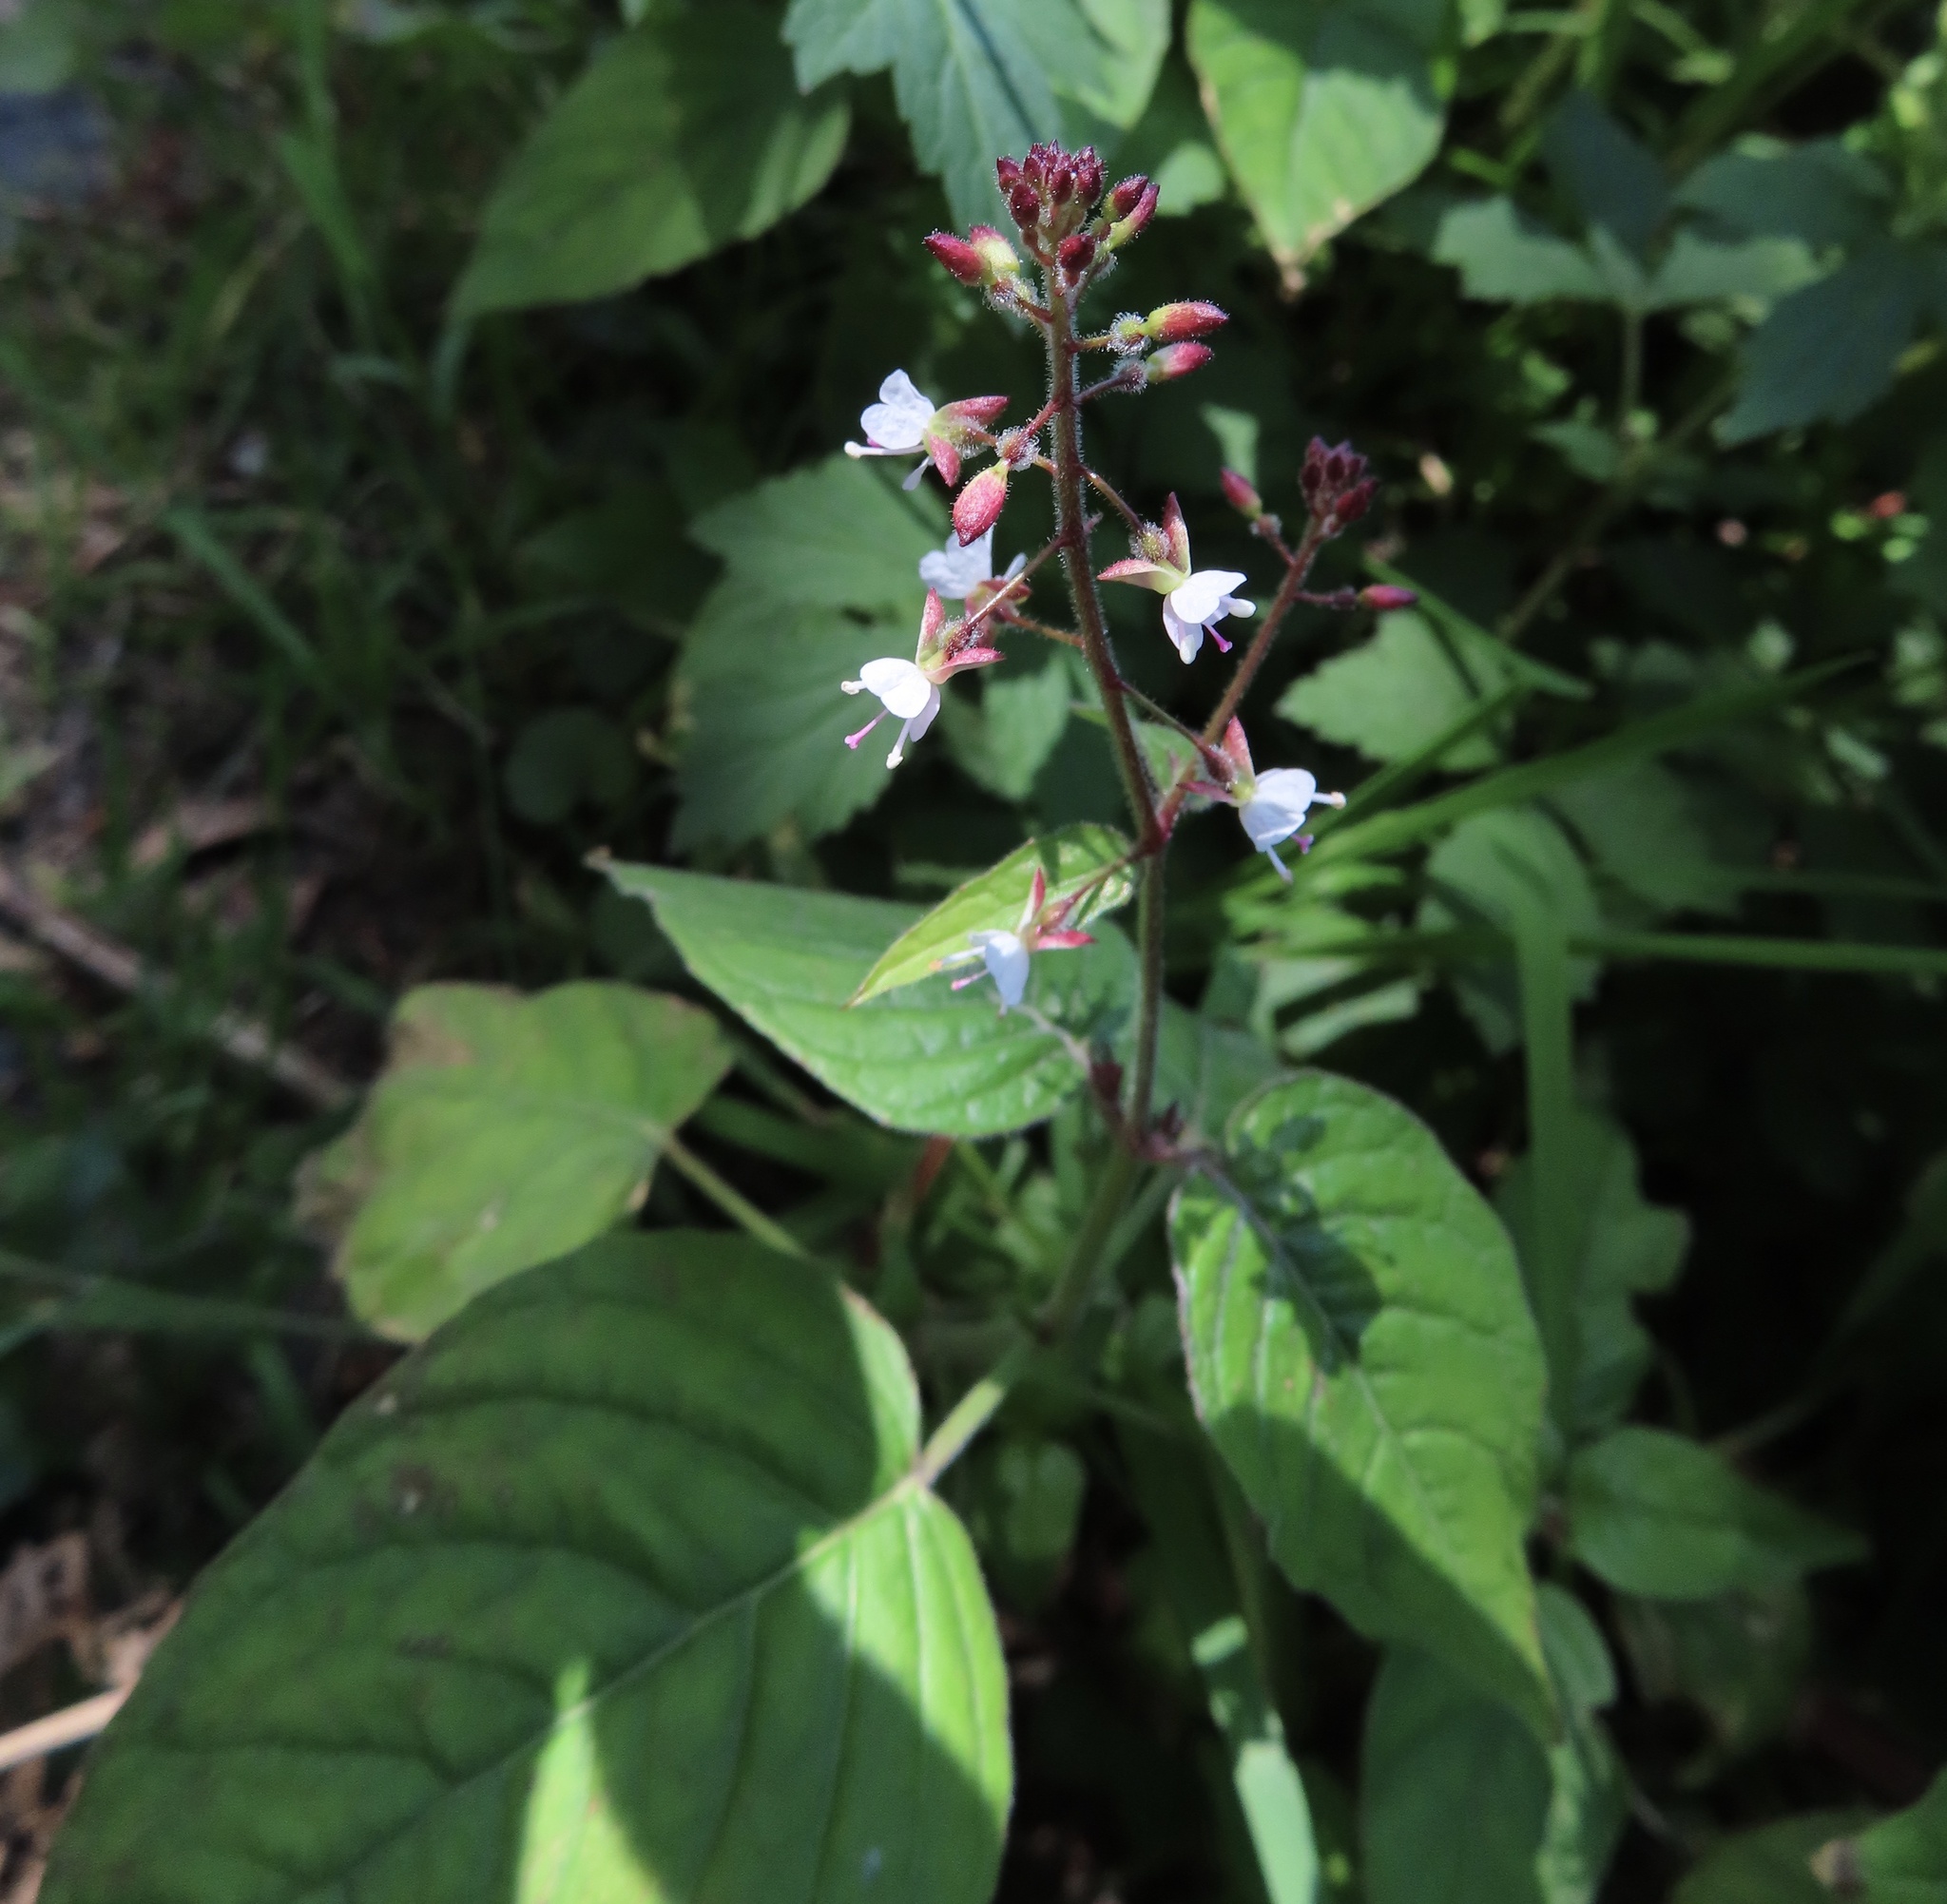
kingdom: Plantae
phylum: Tracheophyta
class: Magnoliopsida
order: Myrtales
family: Onagraceae
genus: Circaea
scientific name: Circaea lutetiana
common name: Enchanter's-nightshade
